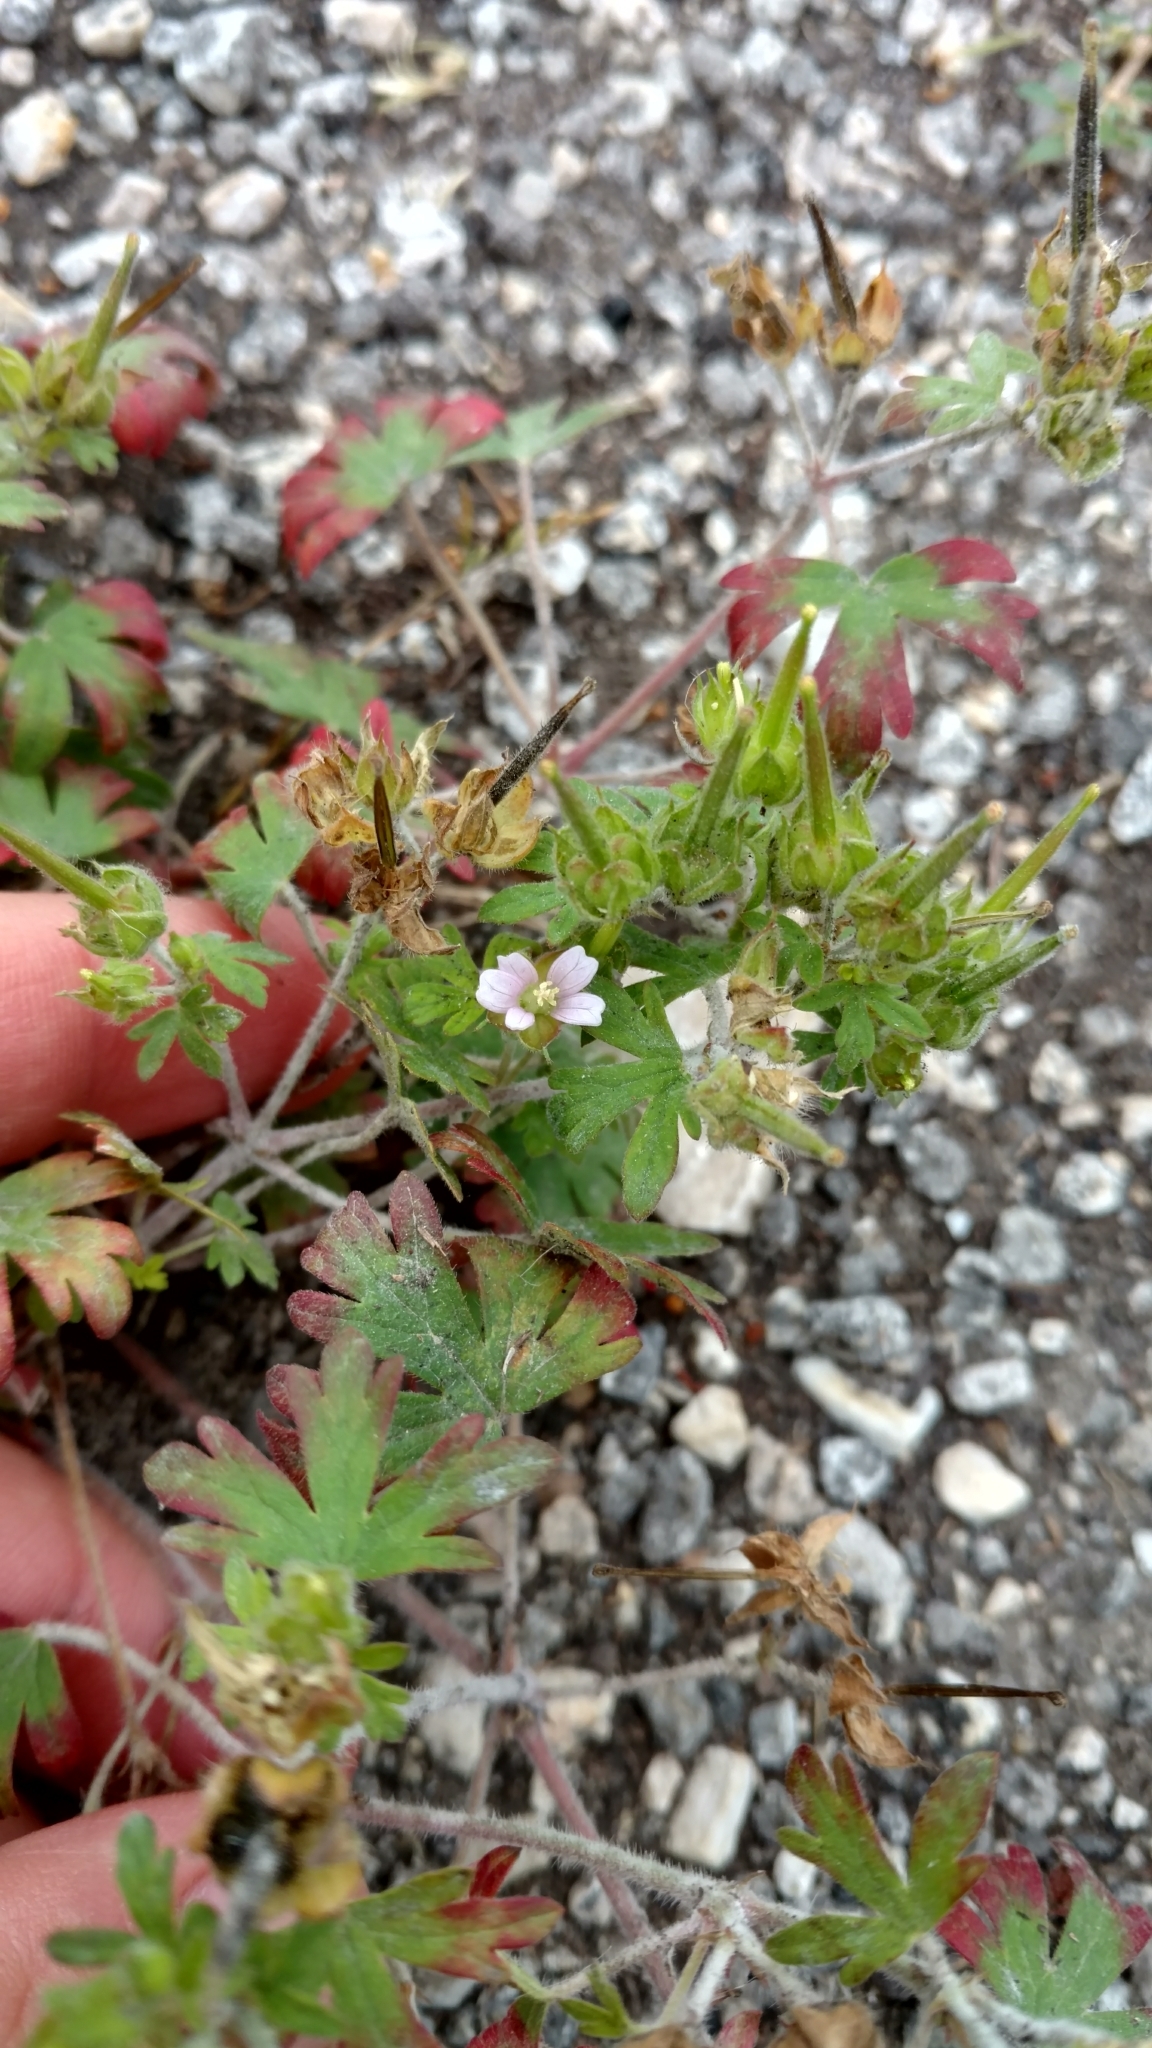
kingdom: Plantae
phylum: Tracheophyta
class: Magnoliopsida
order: Geraniales
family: Geraniaceae
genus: Geranium
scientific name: Geranium carolinianum
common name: Carolina crane's-bill
